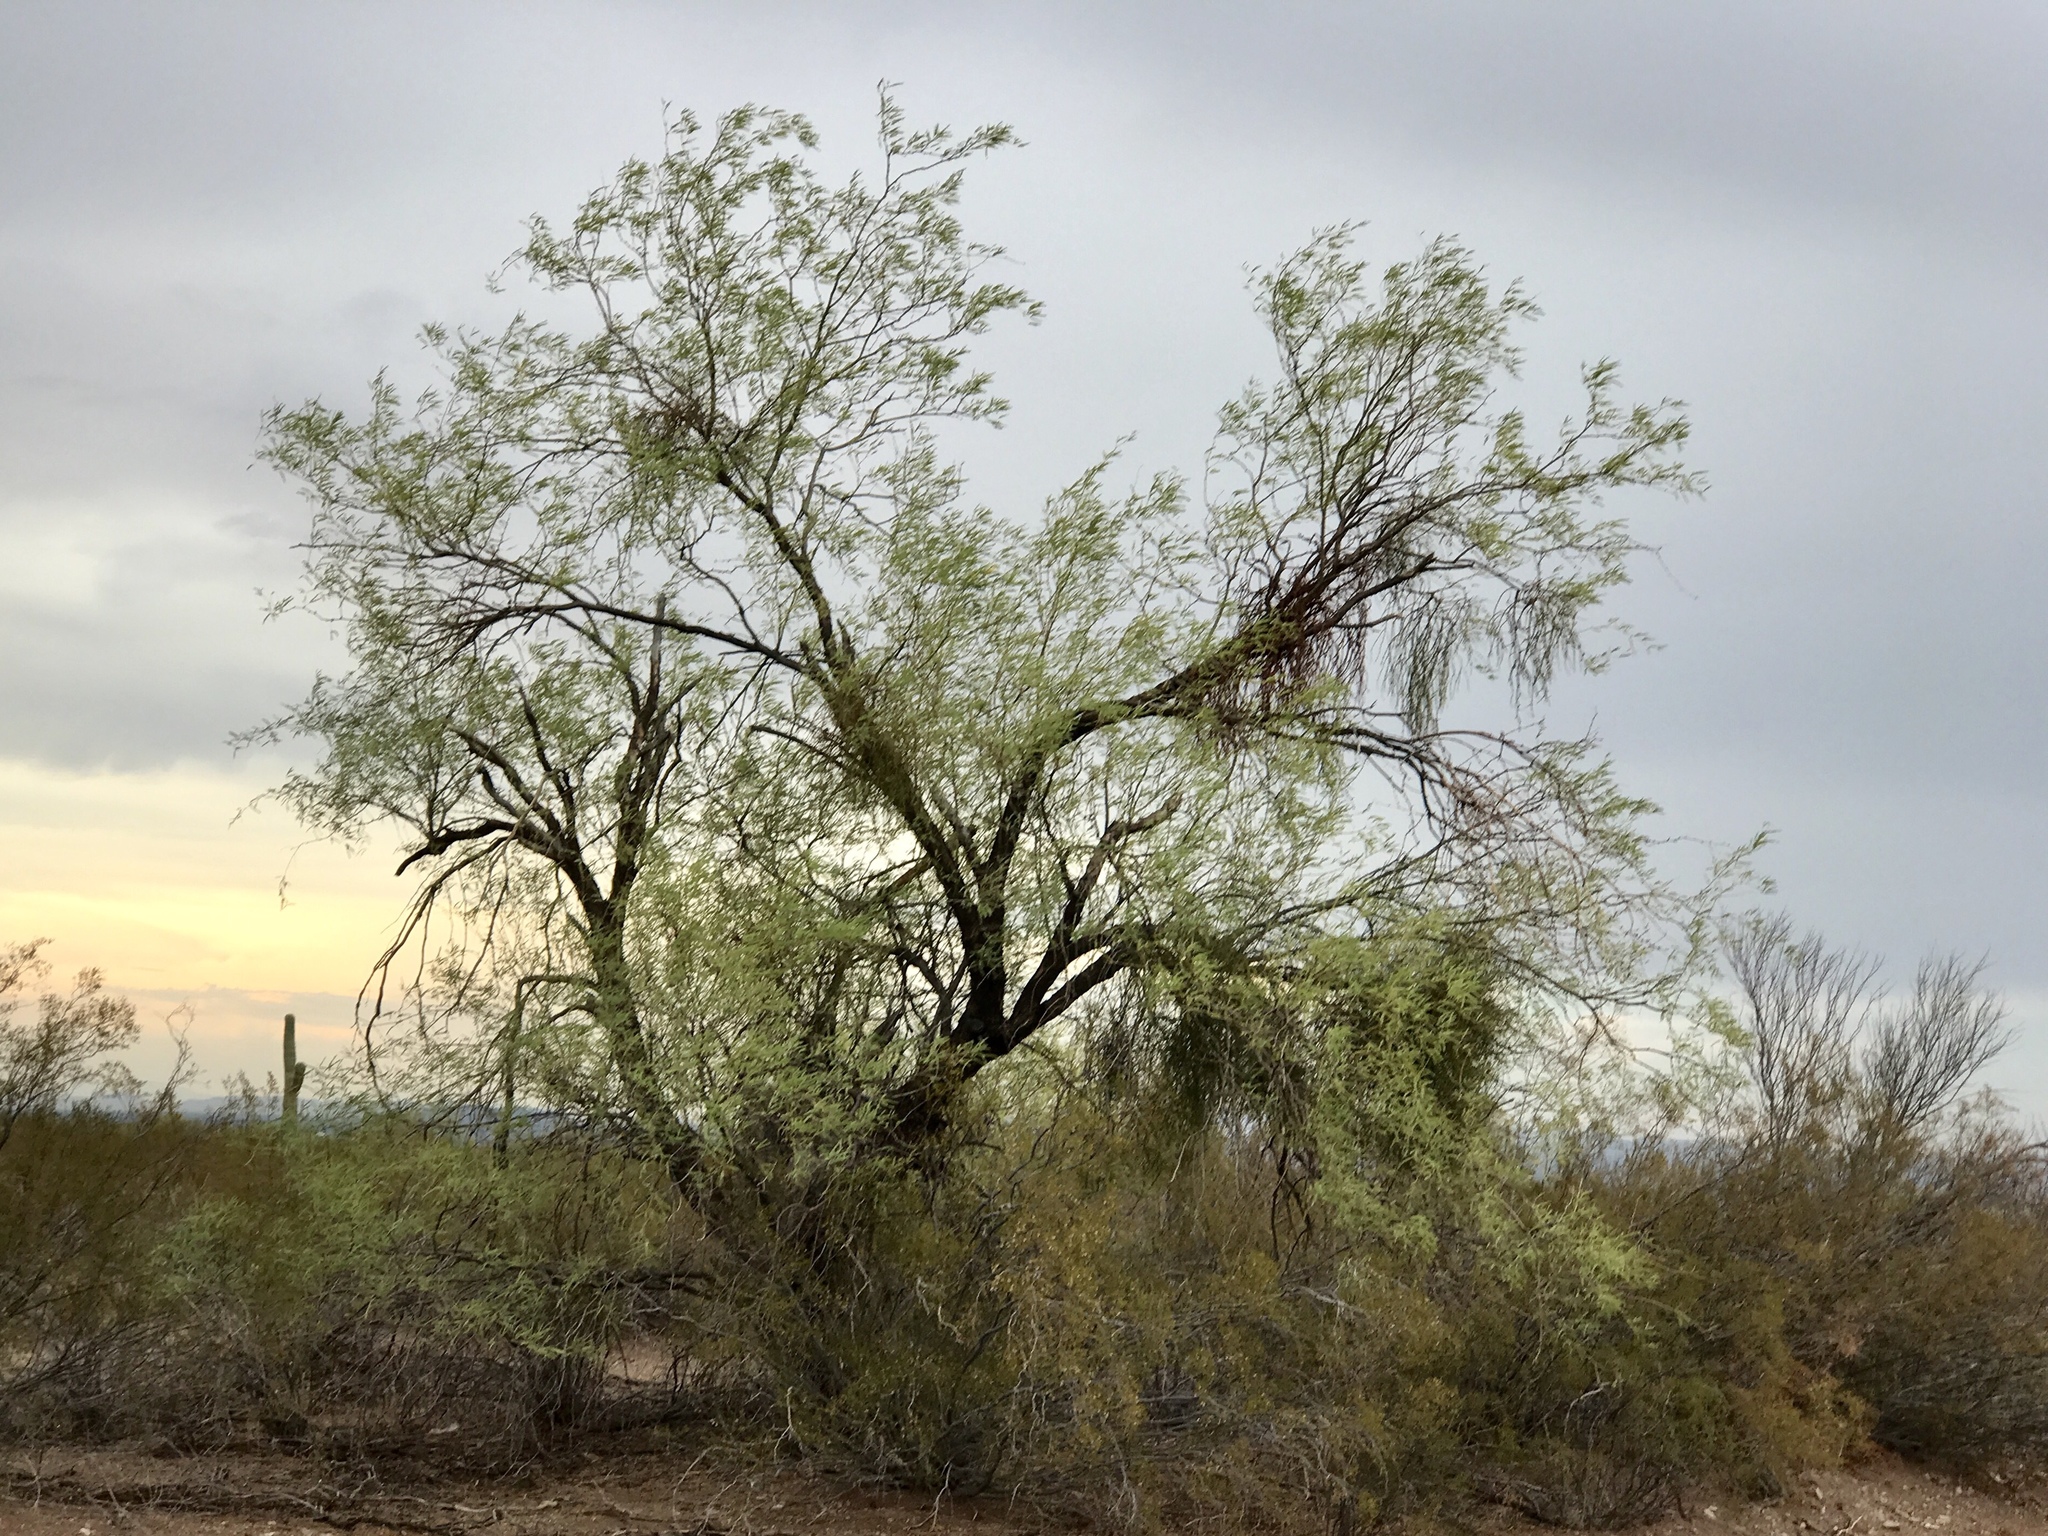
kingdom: Plantae
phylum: Tracheophyta
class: Magnoliopsida
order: Fabales
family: Fabaceae
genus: Olneya
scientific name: Olneya tesota
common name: Desert ironwood
